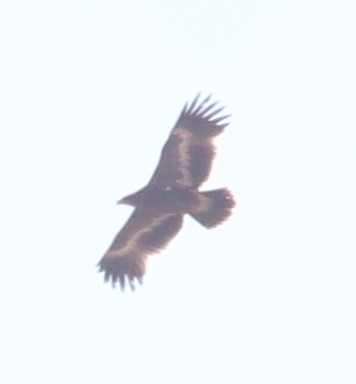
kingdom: Animalia
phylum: Chordata
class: Aves
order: Accipitriformes
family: Accipitridae
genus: Aquila
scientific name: Aquila nipalensis
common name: Steppe eagle
